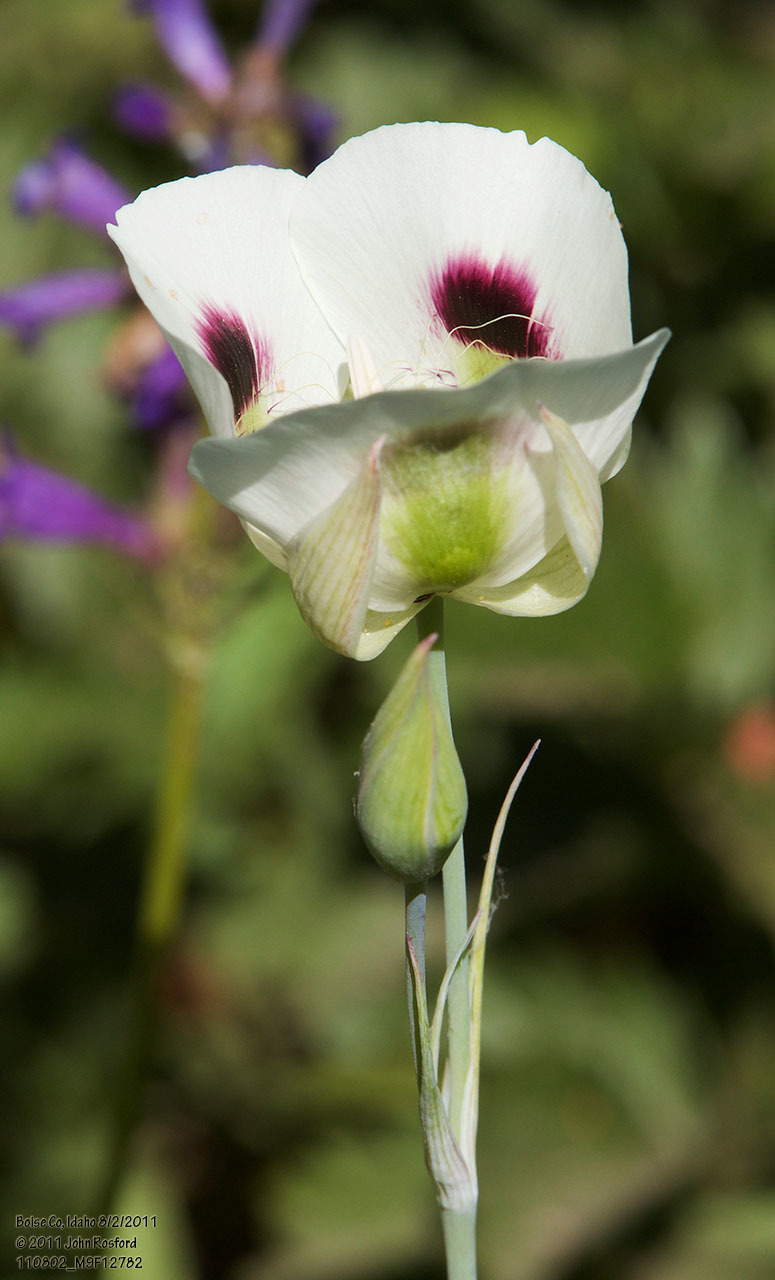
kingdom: Plantae
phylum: Tracheophyta
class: Liliopsida
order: Liliales
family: Liliaceae
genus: Calochortus
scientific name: Calochortus eurycarpus
